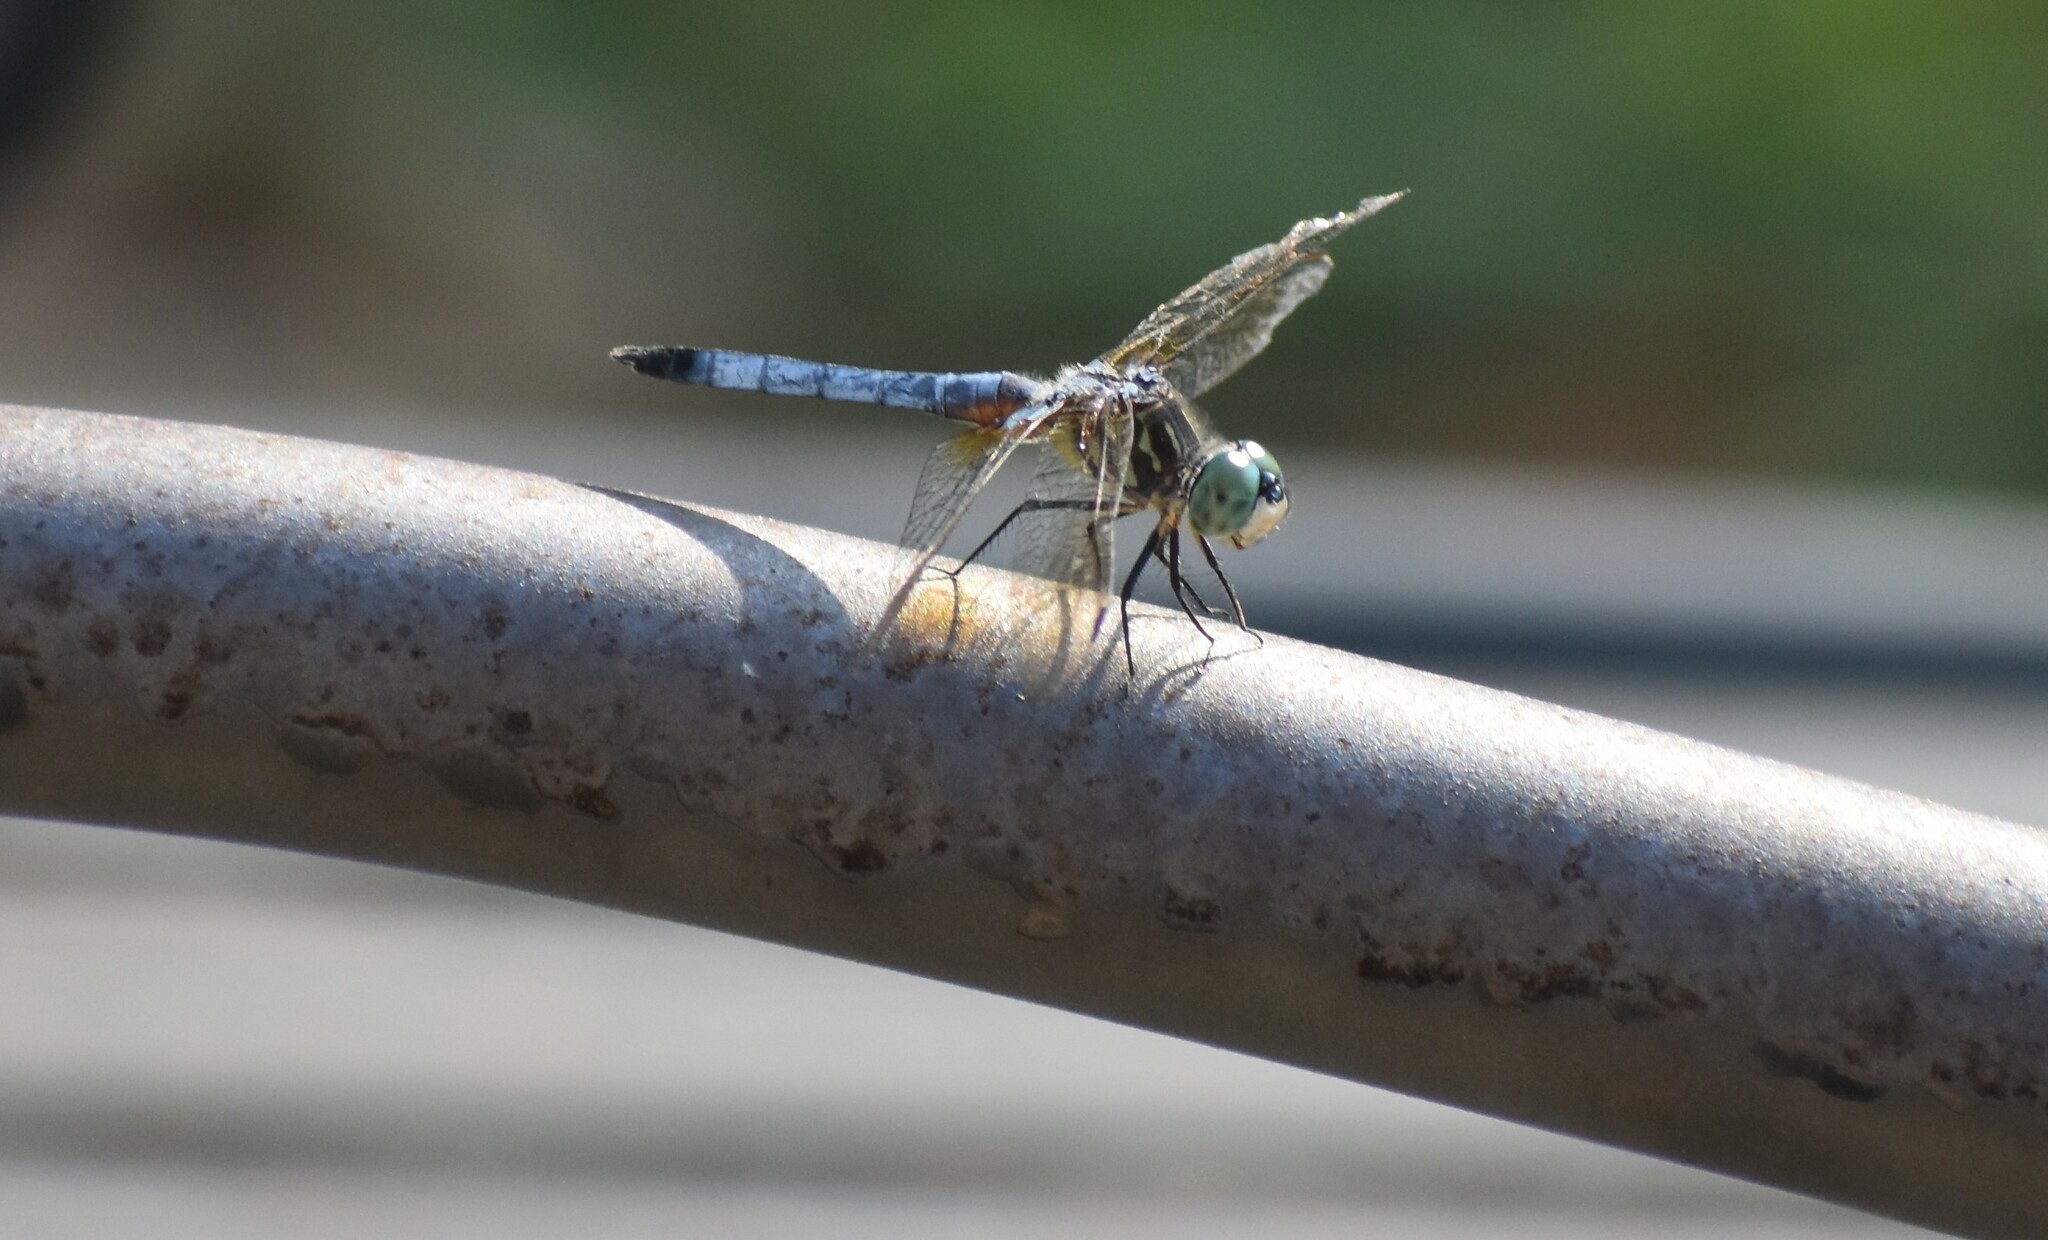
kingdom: Animalia
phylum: Arthropoda
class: Insecta
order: Odonata
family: Libellulidae
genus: Pachydiplax
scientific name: Pachydiplax longipennis
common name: Blue dasher
